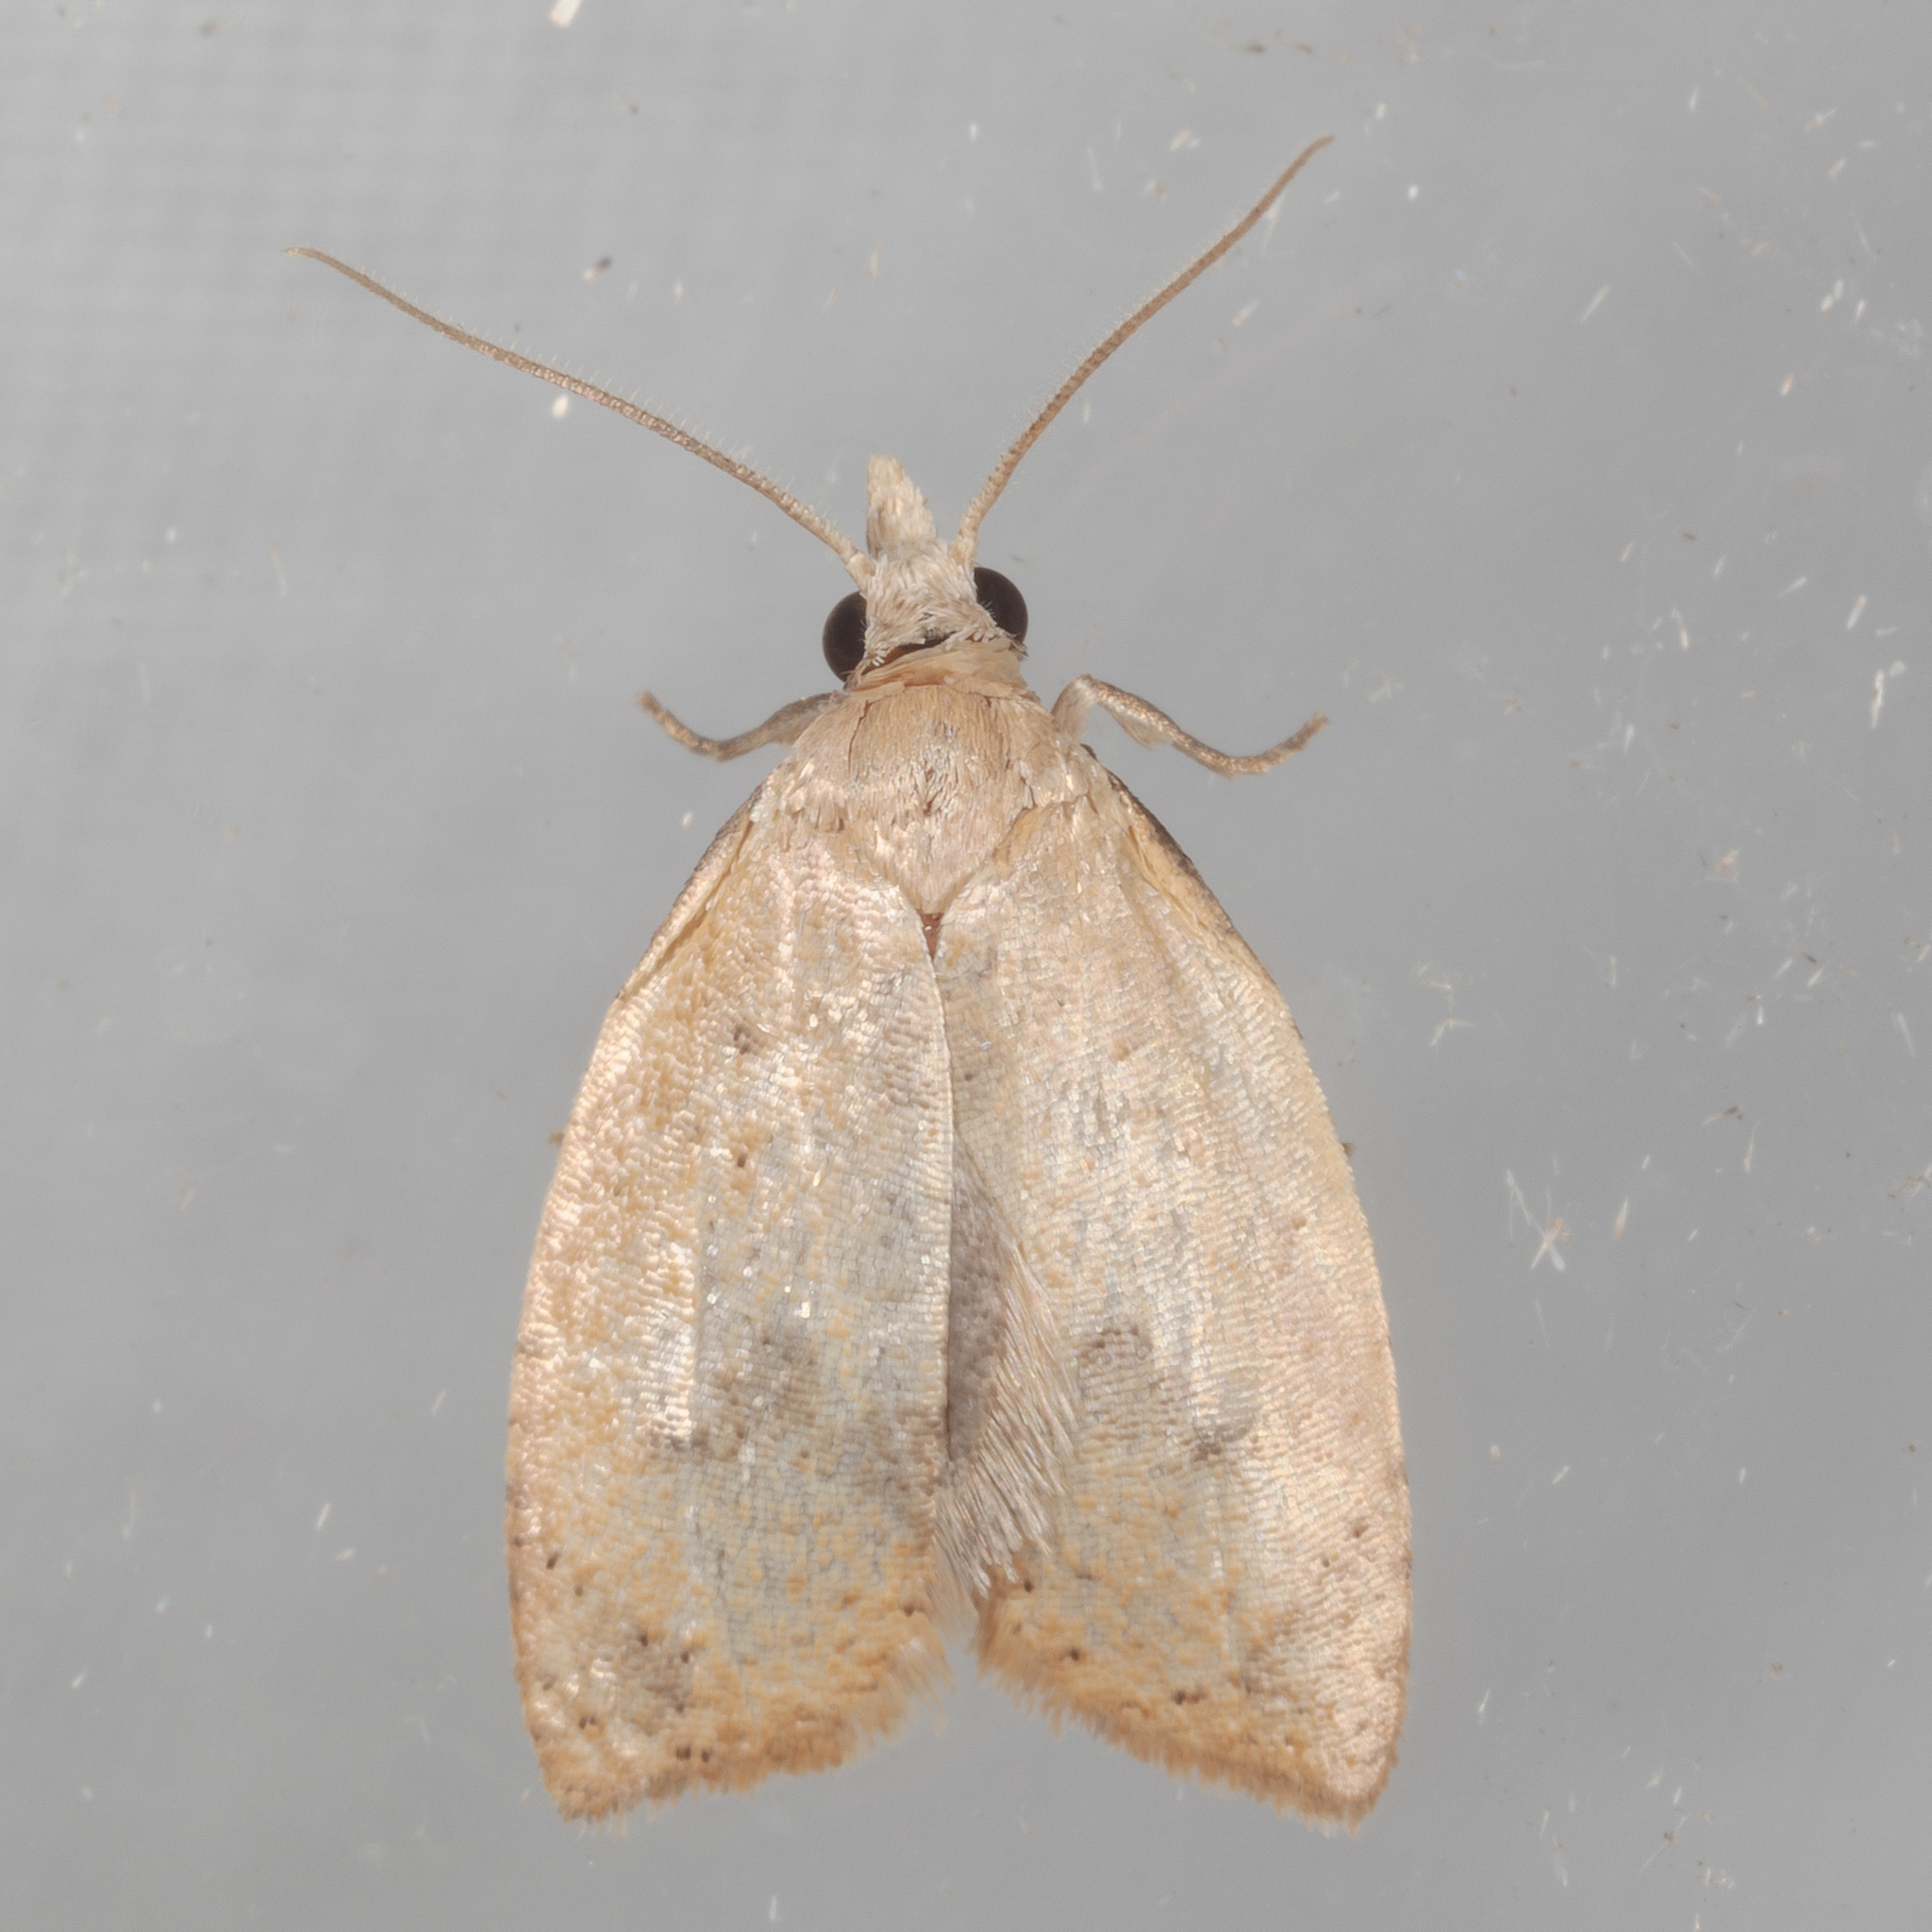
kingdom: Animalia
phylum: Arthropoda
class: Insecta
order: Lepidoptera
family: Tortricidae
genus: Sparganothoides
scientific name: Sparganothoides lentiginosana
